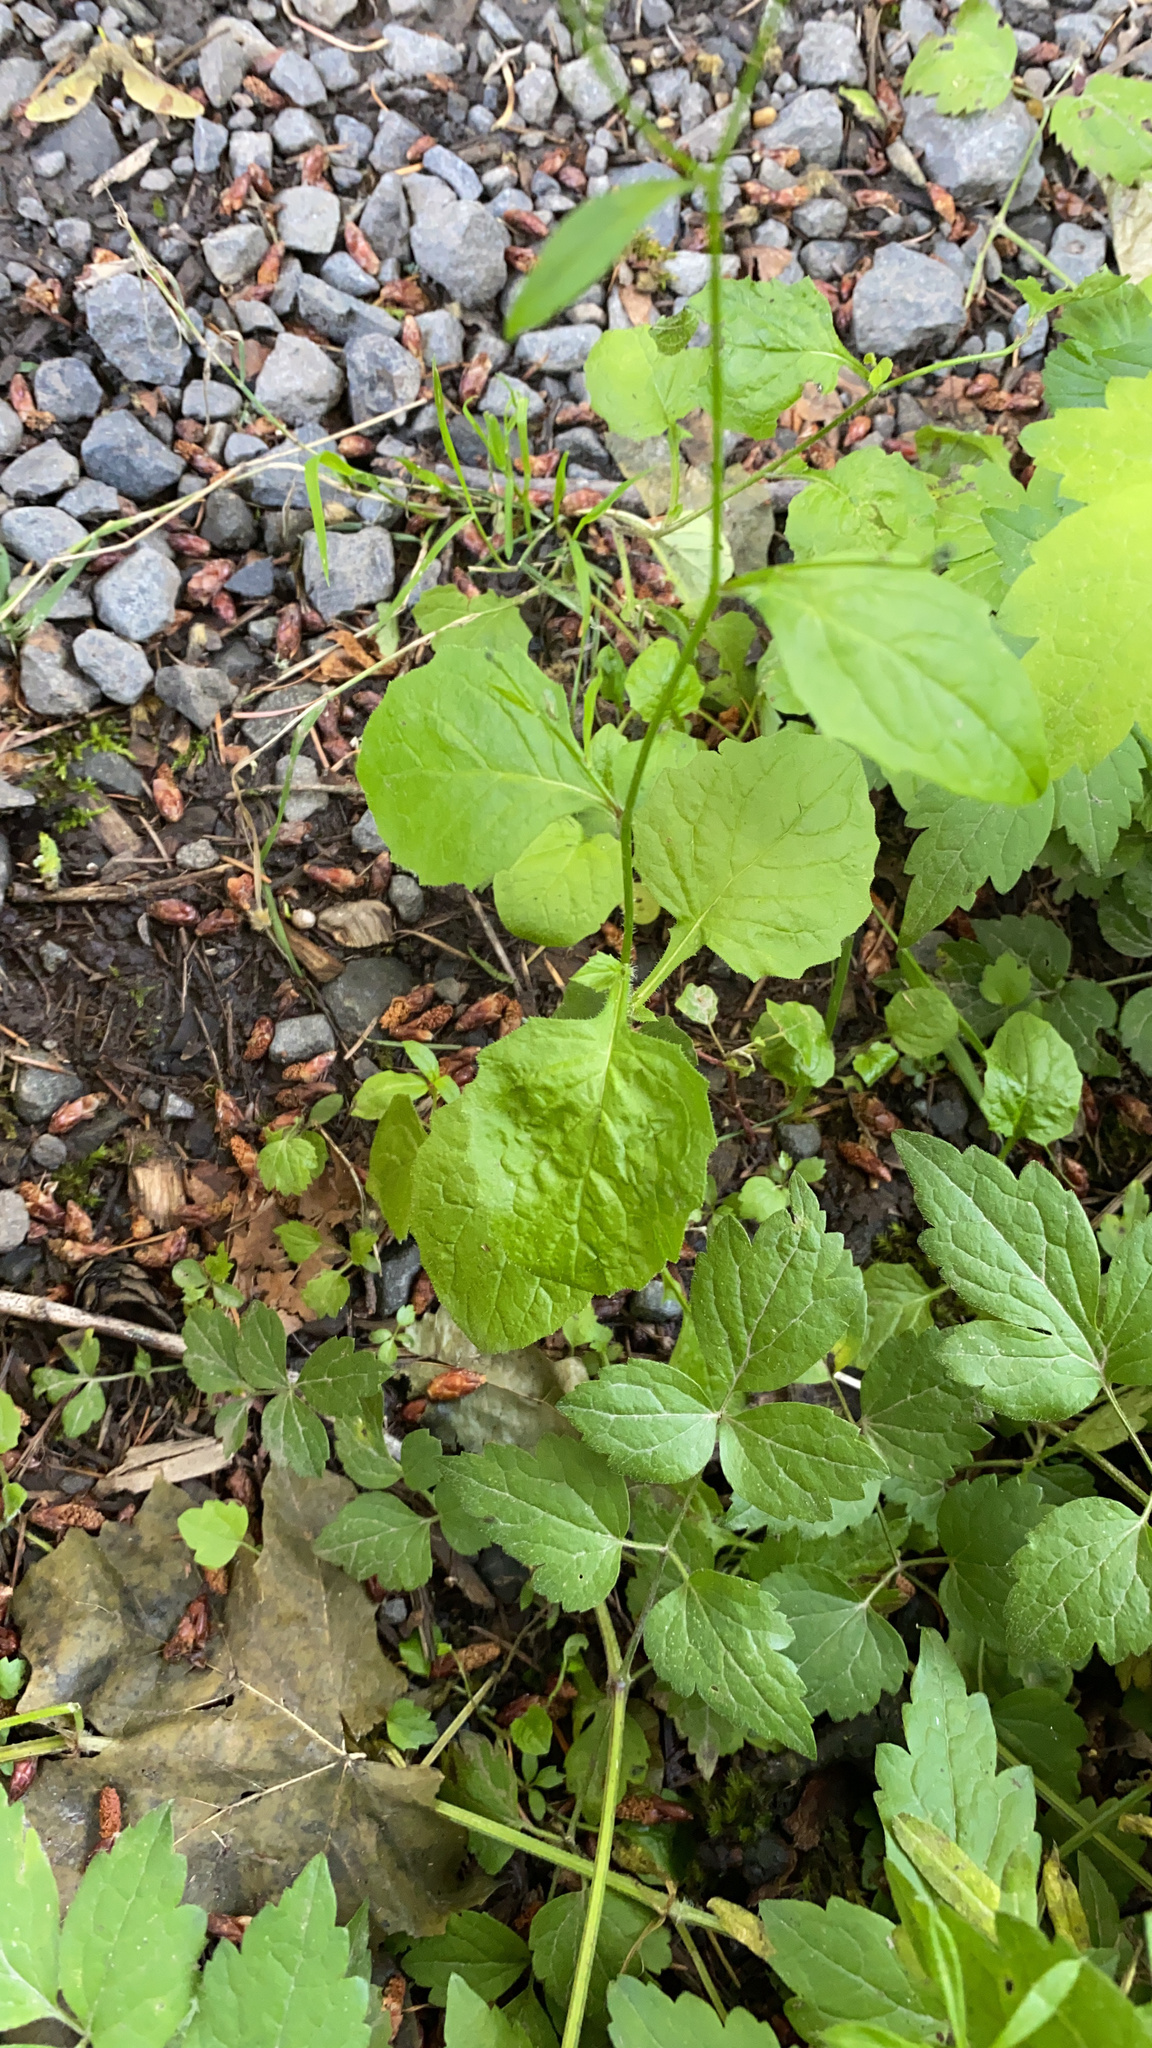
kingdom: Plantae
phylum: Tracheophyta
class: Magnoliopsida
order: Asterales
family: Asteraceae
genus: Lapsana
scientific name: Lapsana communis
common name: Nipplewort
